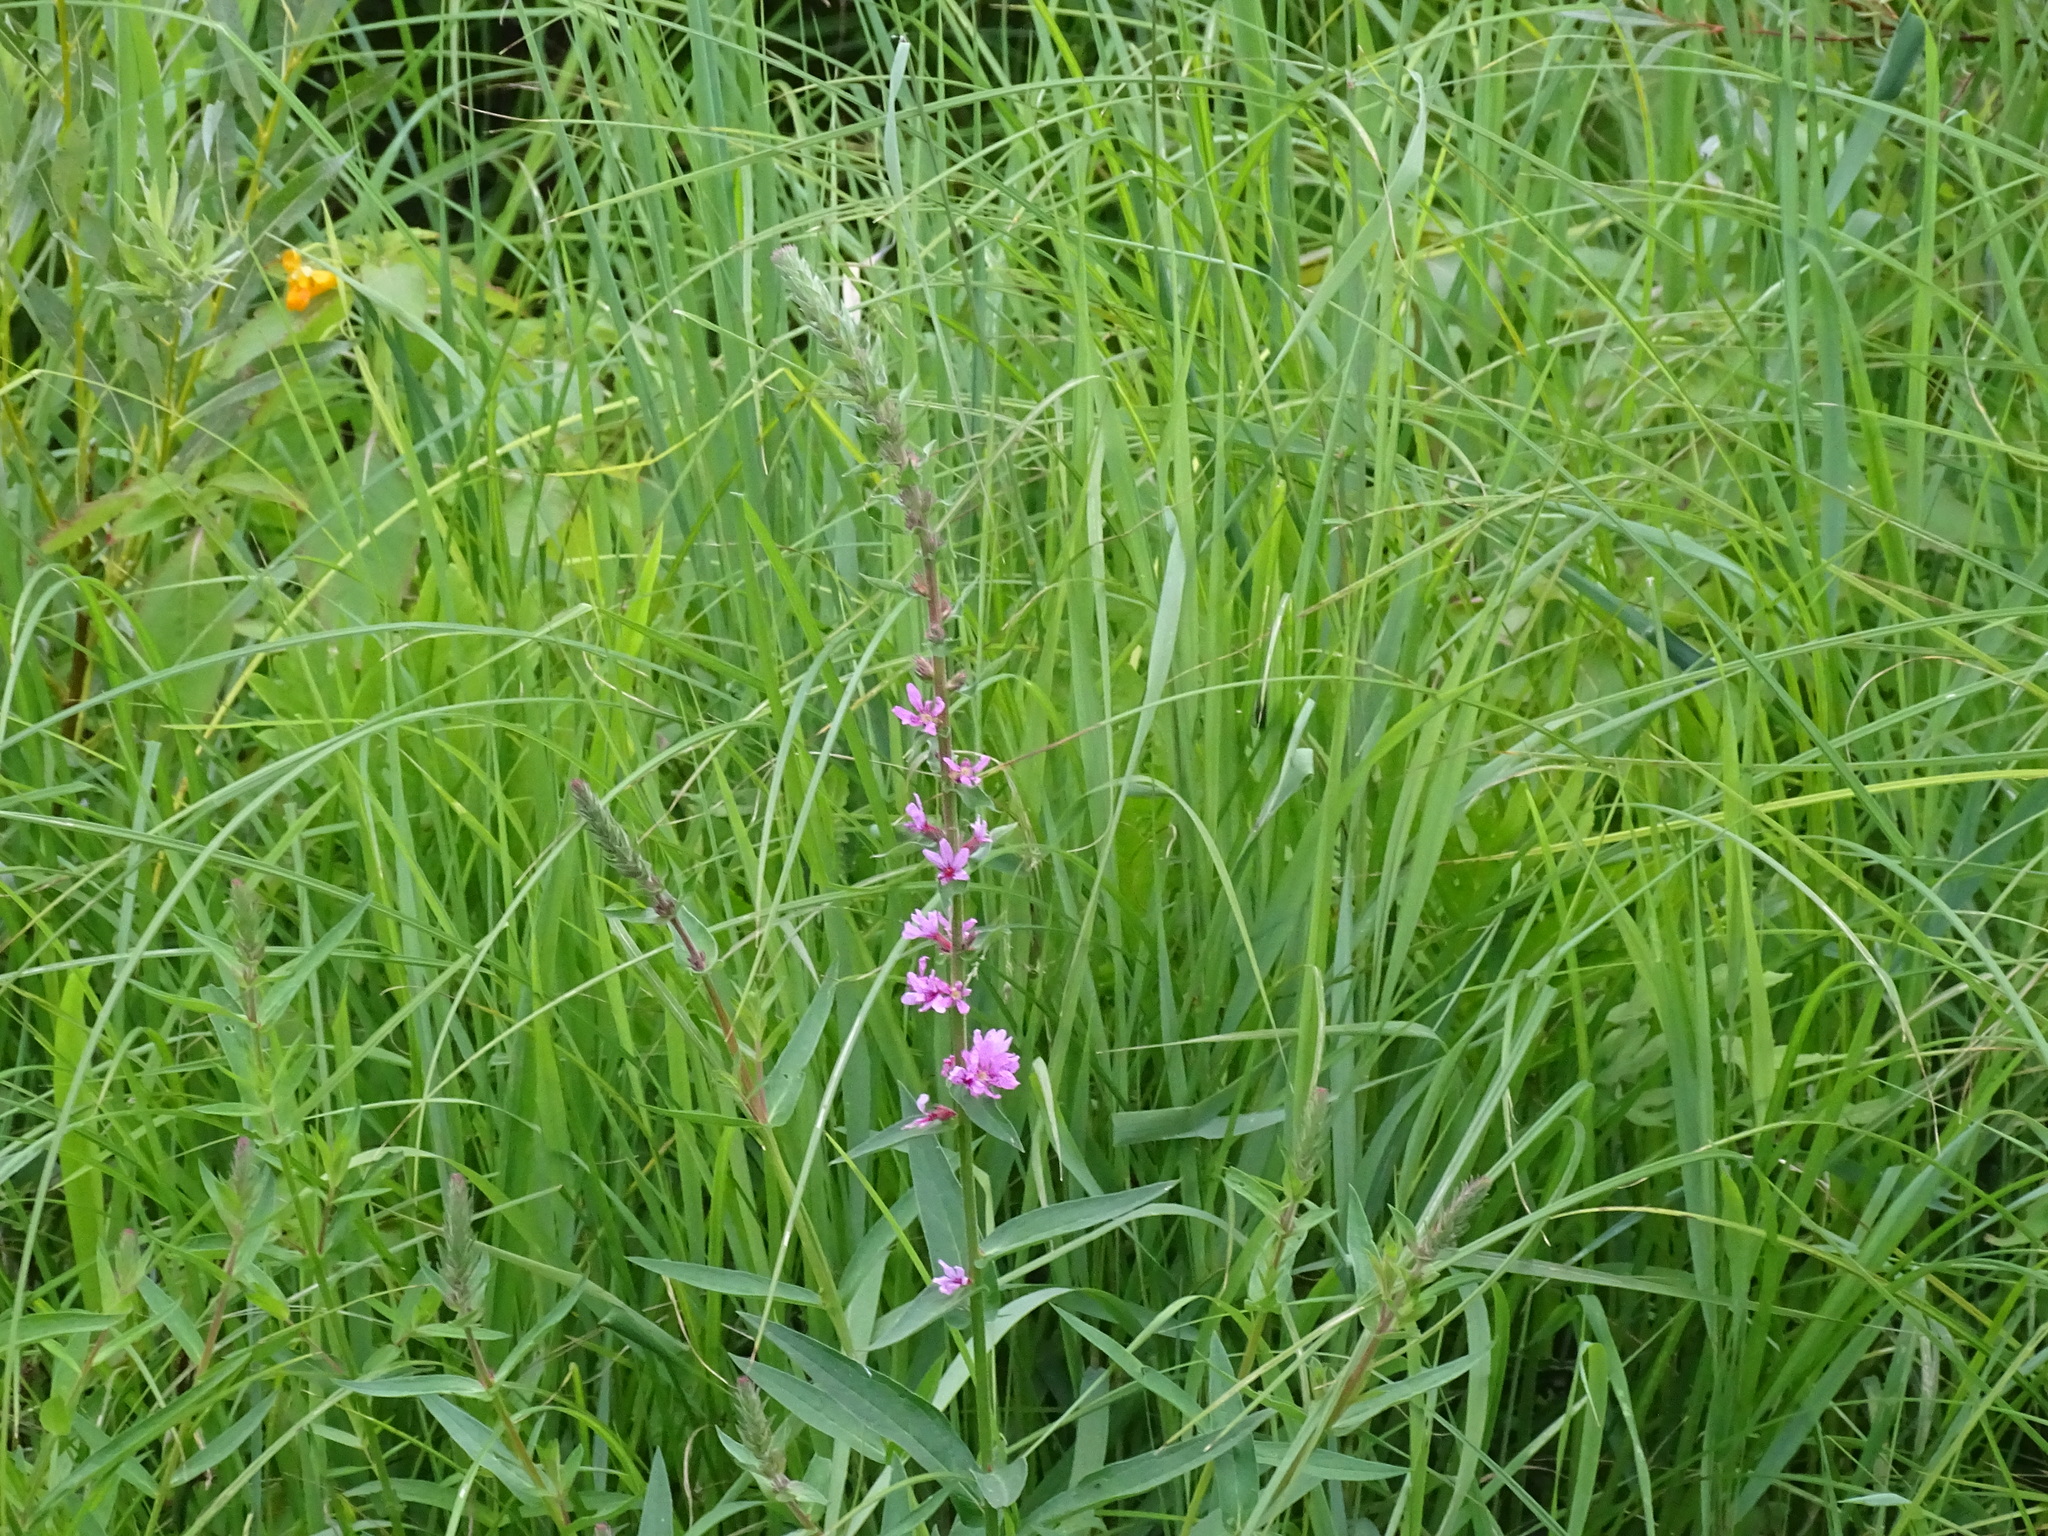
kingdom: Plantae
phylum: Tracheophyta
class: Magnoliopsida
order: Myrtales
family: Lythraceae
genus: Lythrum
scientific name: Lythrum salicaria
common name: Purple loosestrife
